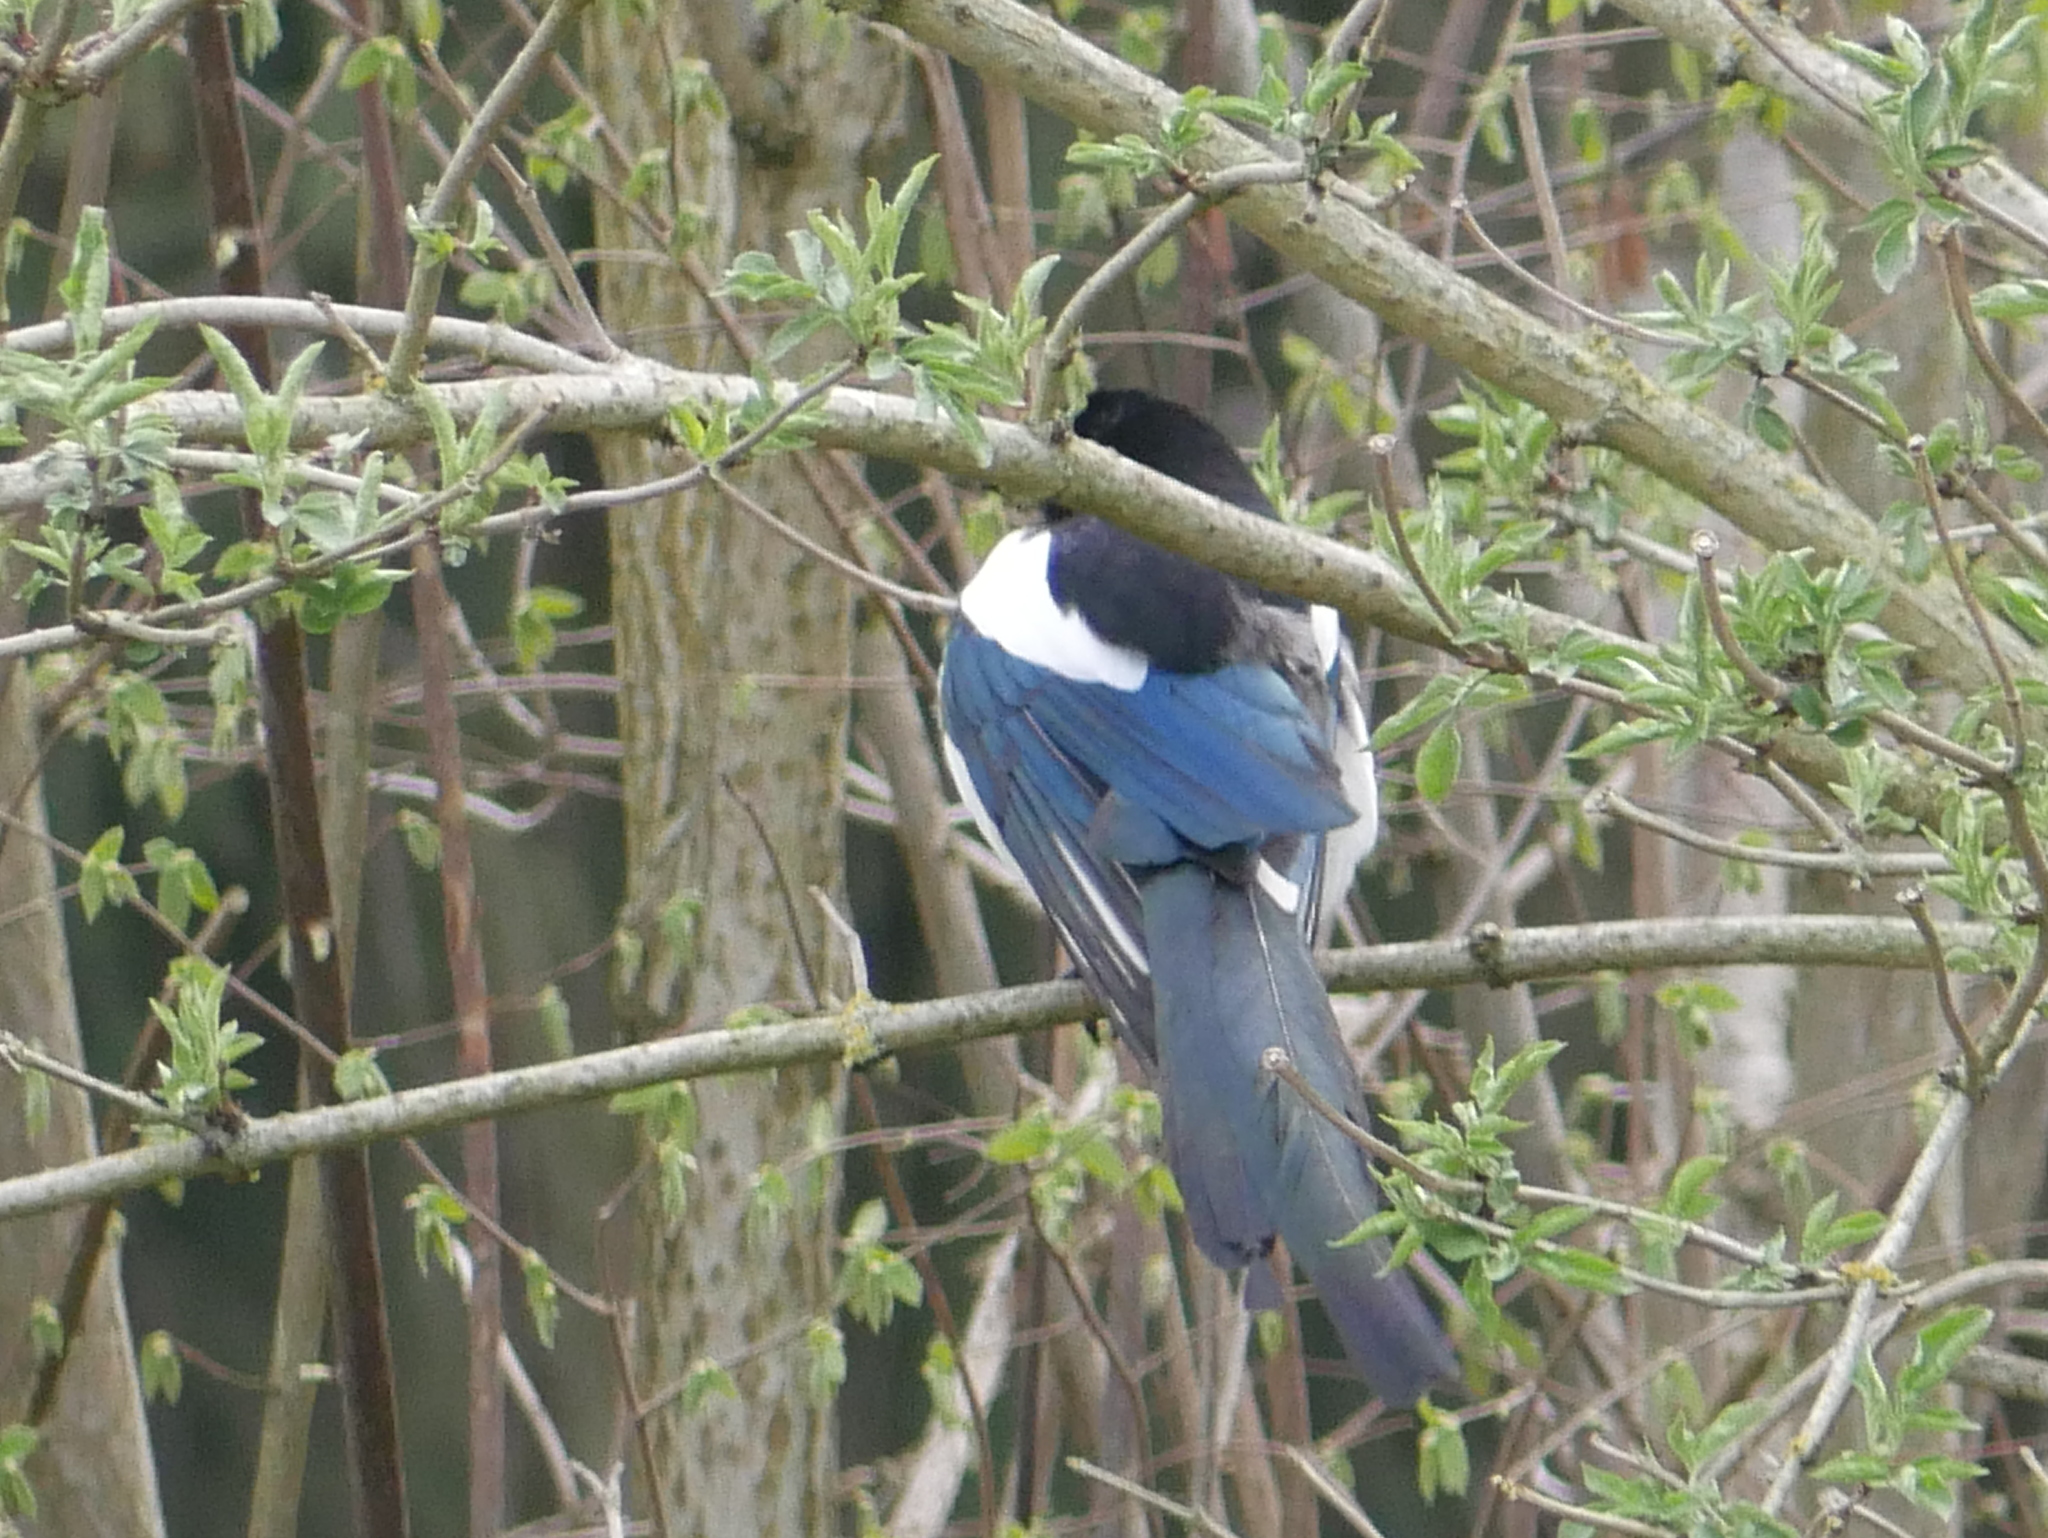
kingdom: Animalia
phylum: Chordata
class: Aves
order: Passeriformes
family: Corvidae
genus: Pica
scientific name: Pica pica
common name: Eurasian magpie
